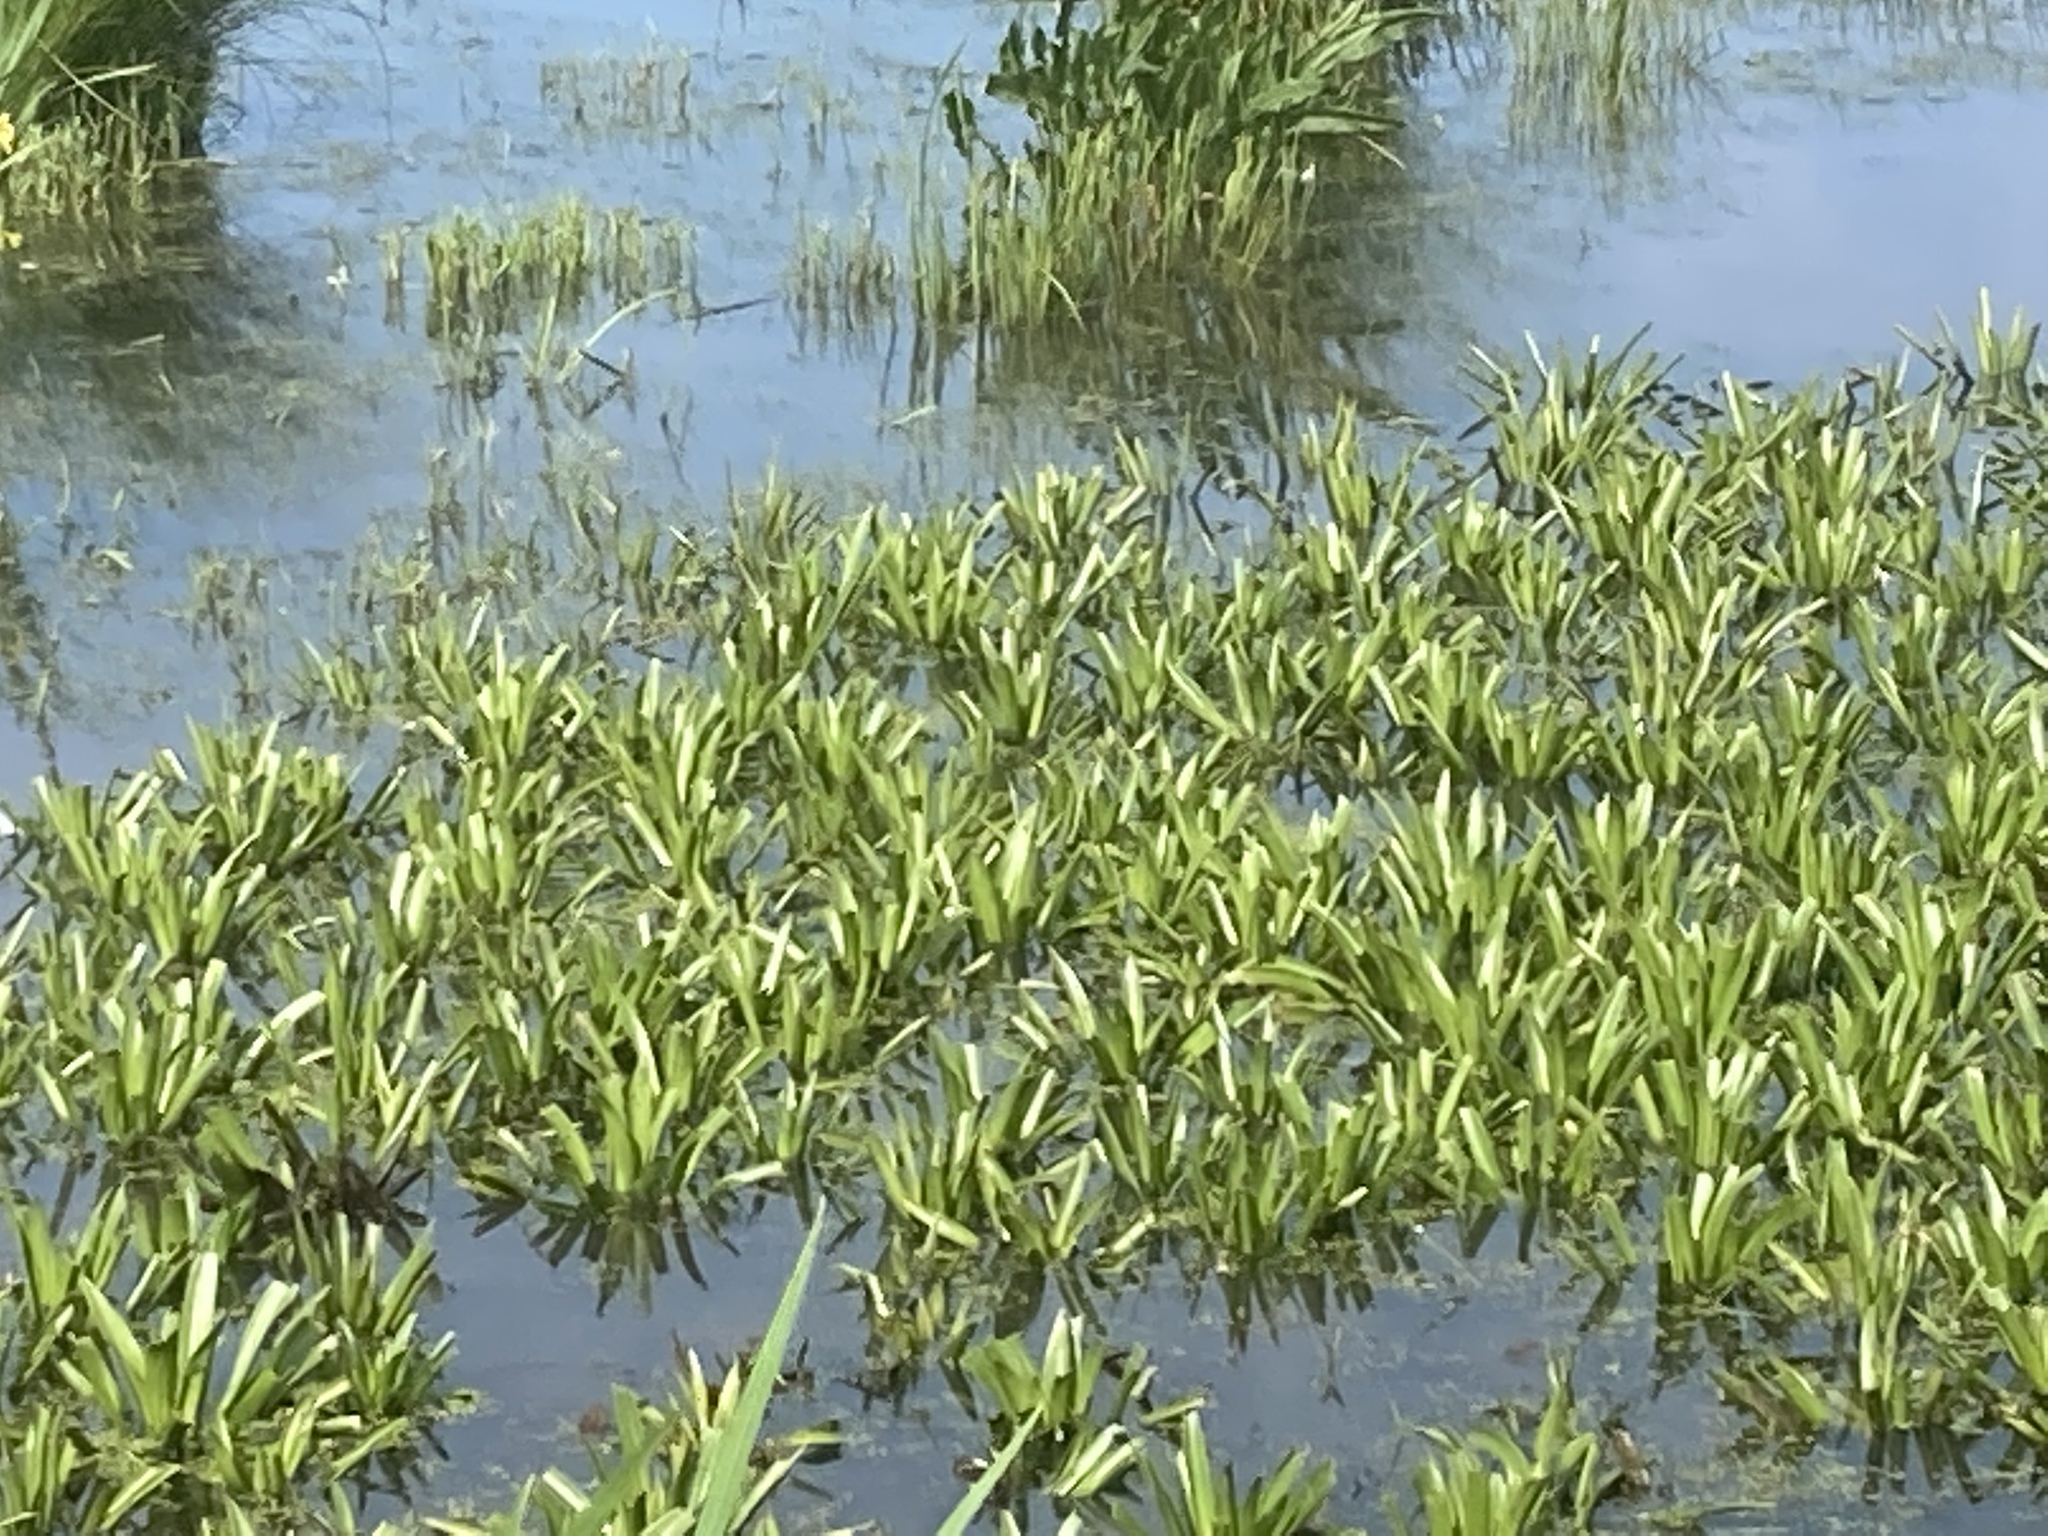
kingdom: Plantae
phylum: Tracheophyta
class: Liliopsida
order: Alismatales
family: Hydrocharitaceae
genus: Stratiotes
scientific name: Stratiotes aloides
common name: Water-soldier
